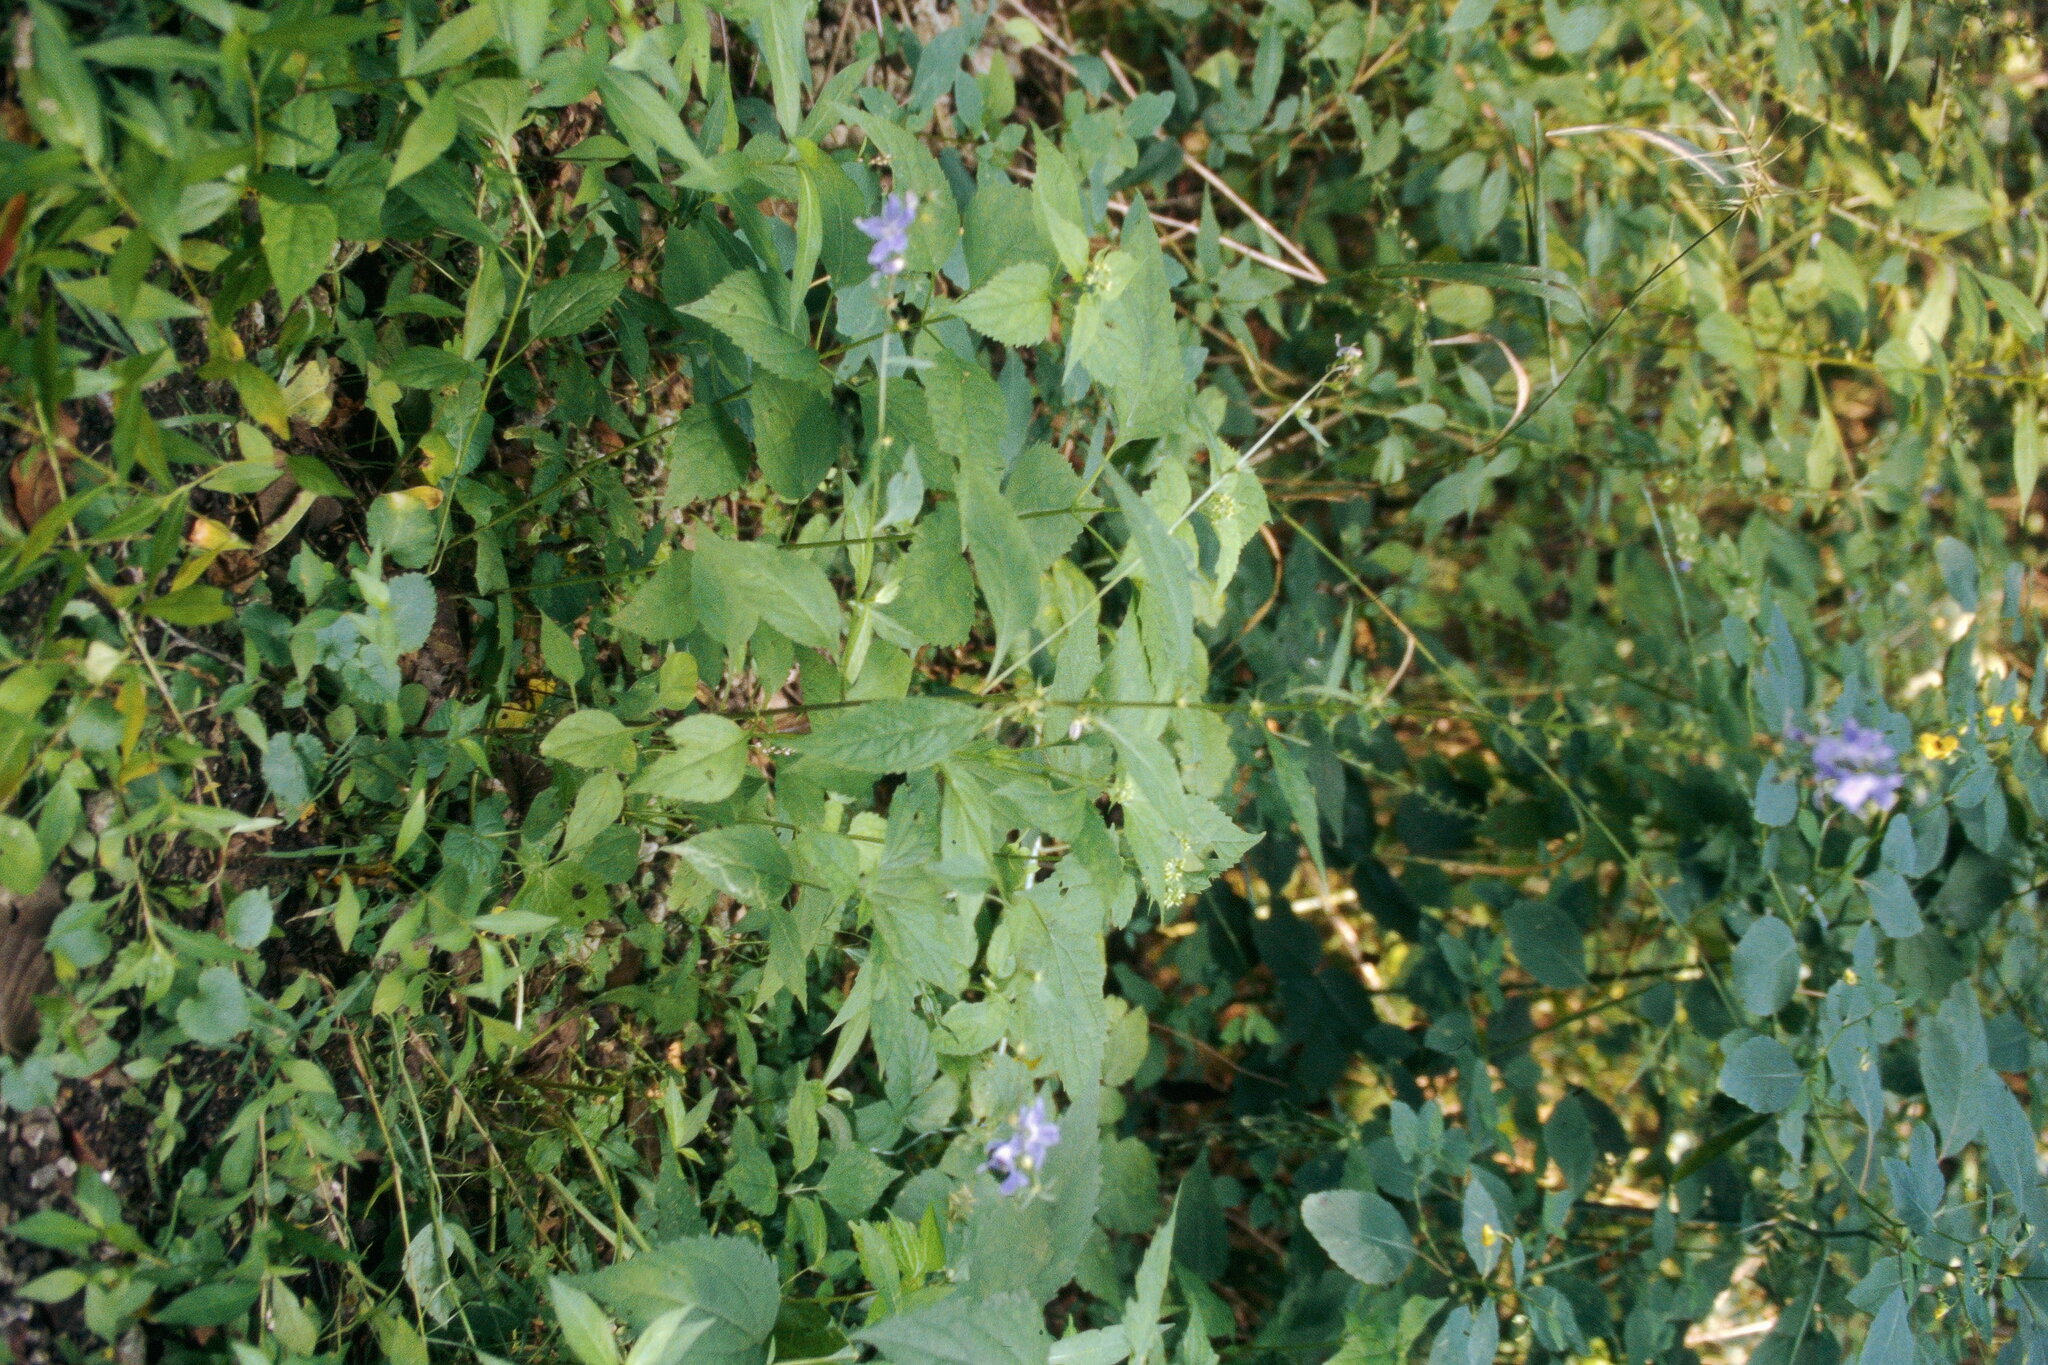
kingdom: Plantae
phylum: Tracheophyta
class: Magnoliopsida
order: Asterales
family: Campanulaceae
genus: Campanulastrum
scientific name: Campanulastrum americanum
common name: American bellflower
